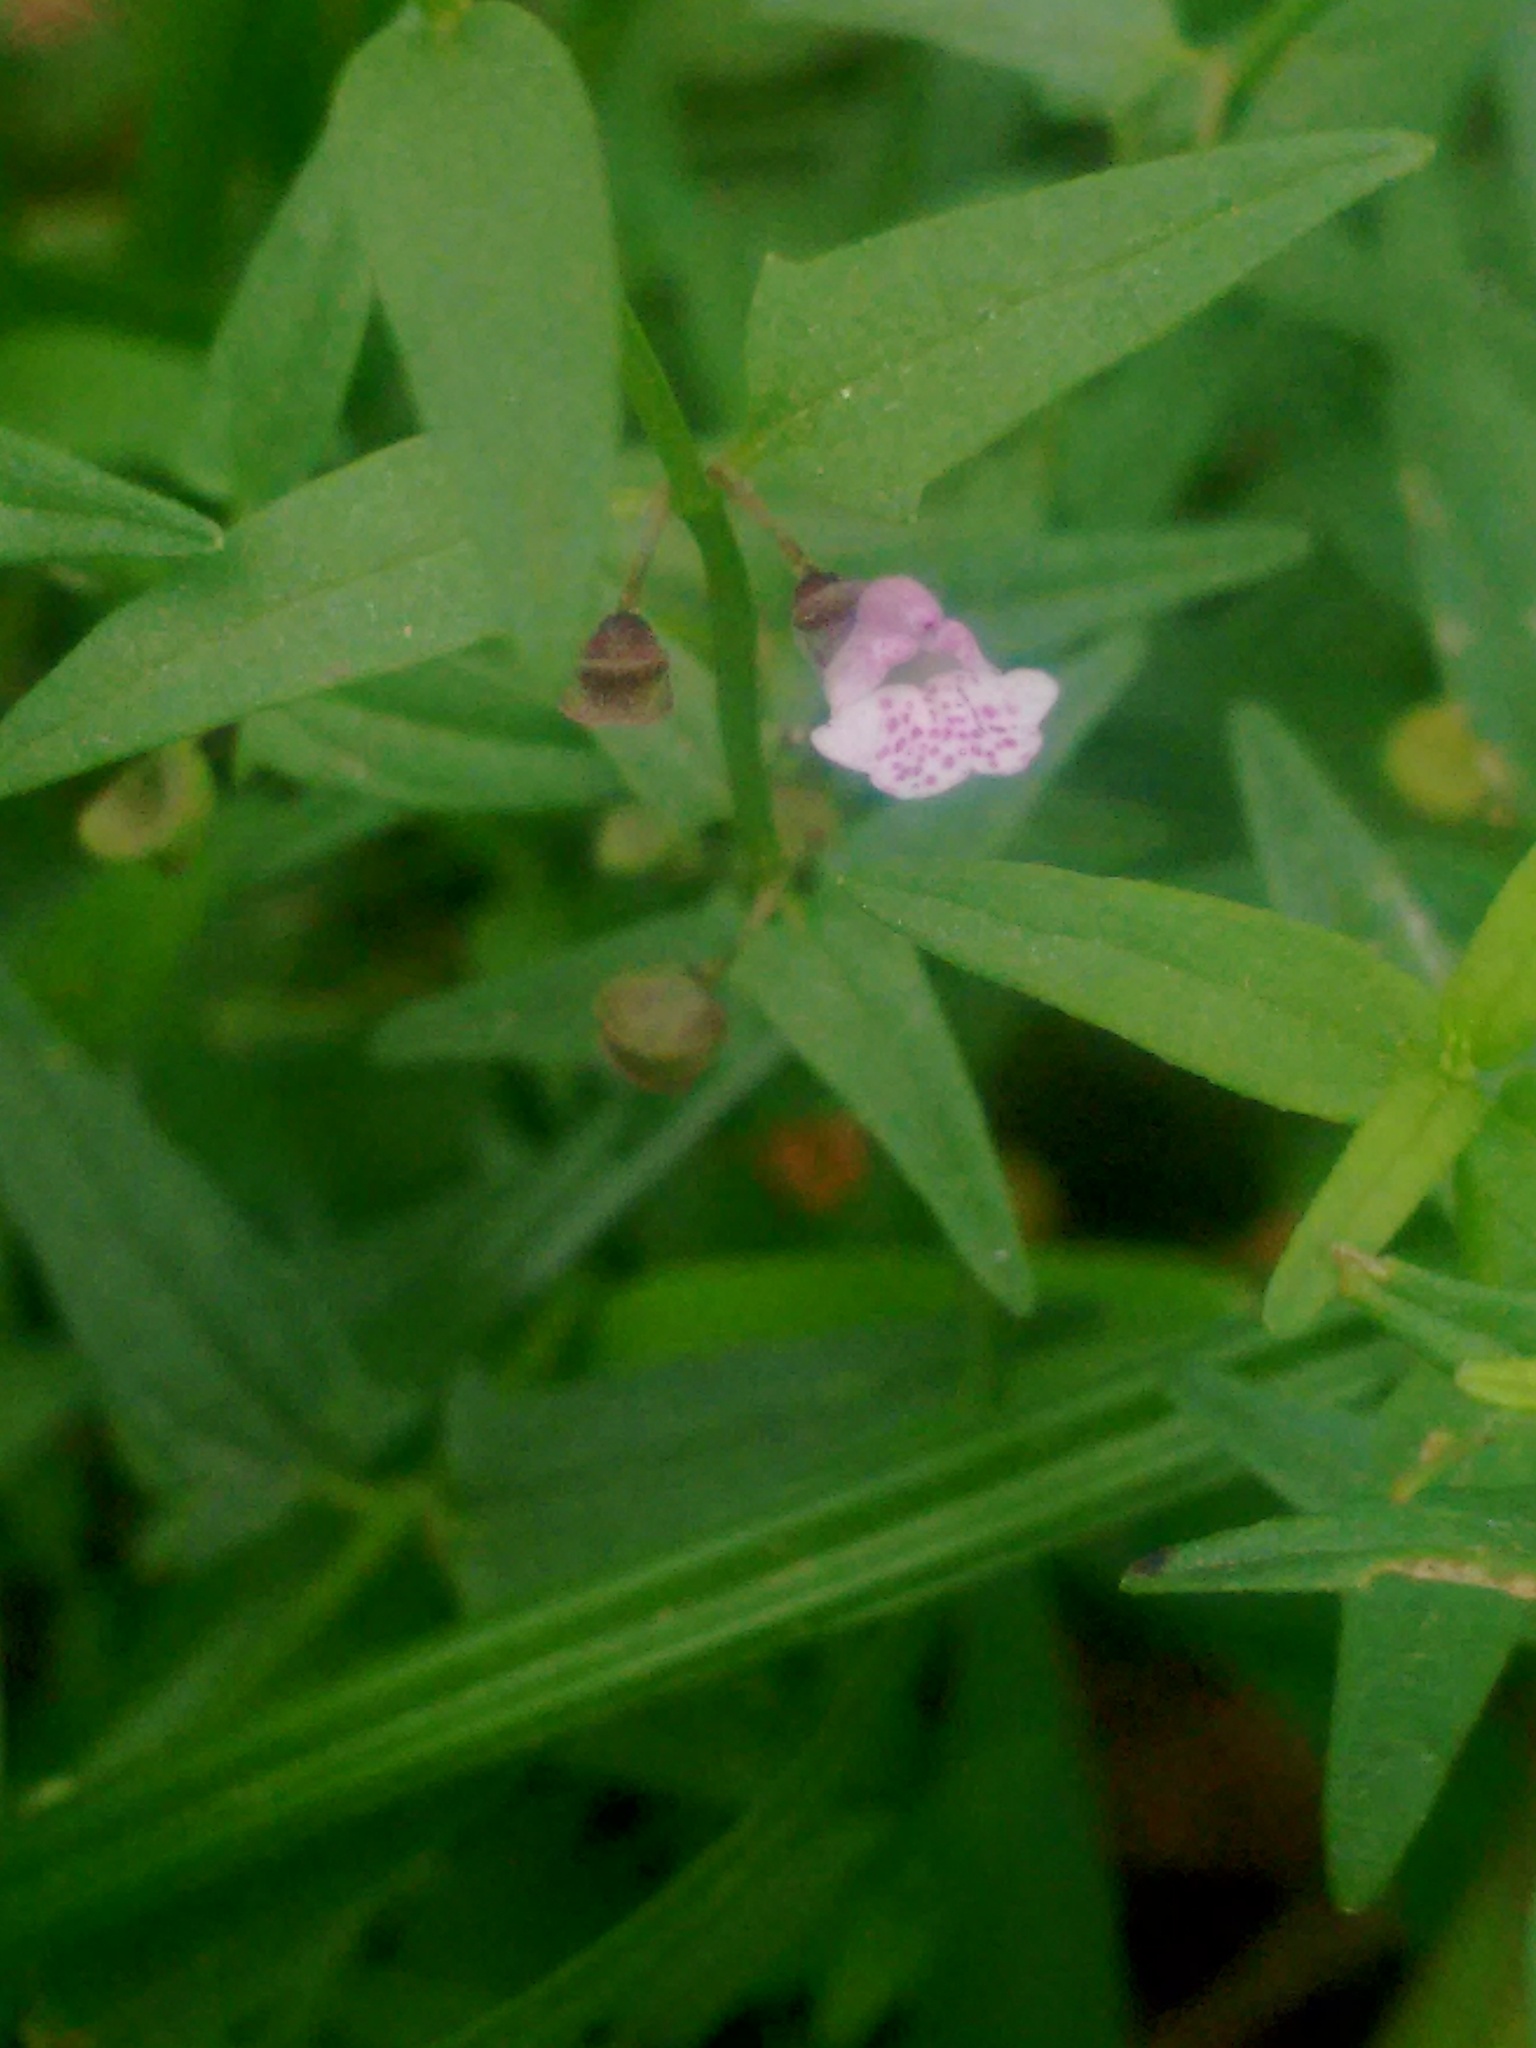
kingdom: Plantae
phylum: Tracheophyta
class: Magnoliopsida
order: Lamiales
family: Lamiaceae
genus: Scutellaria
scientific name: Scutellaria racemosa
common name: South american skullcap
